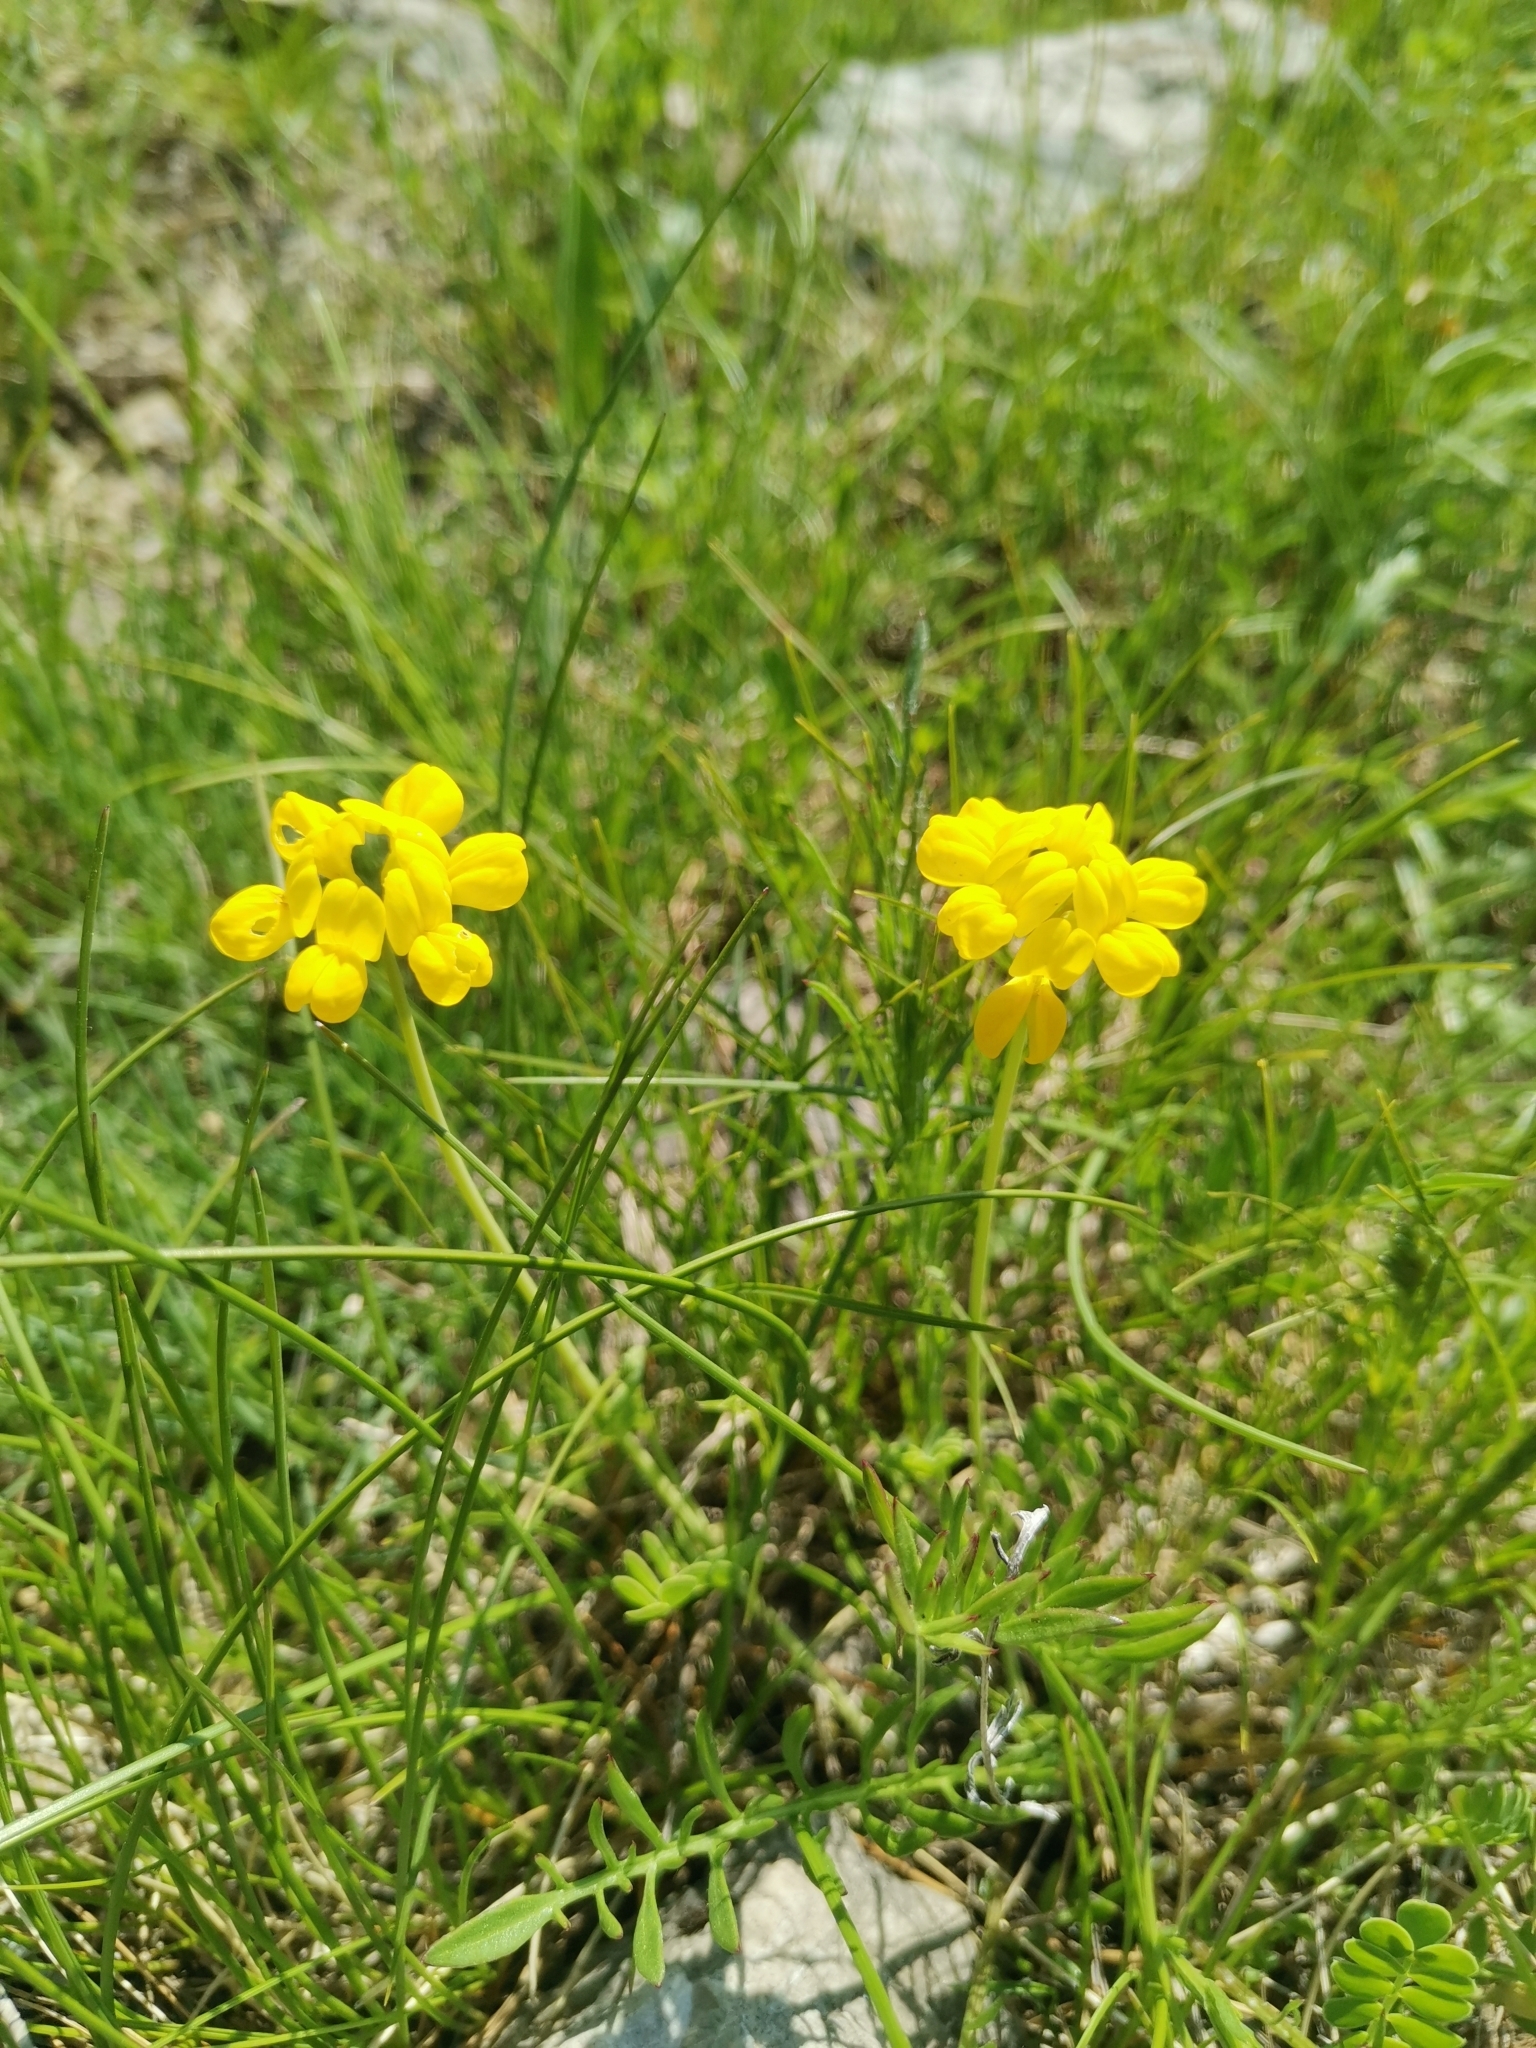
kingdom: Plantae
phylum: Tracheophyta
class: Magnoliopsida
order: Fabales
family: Fabaceae
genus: Coronilla
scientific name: Coronilla vaginalis
